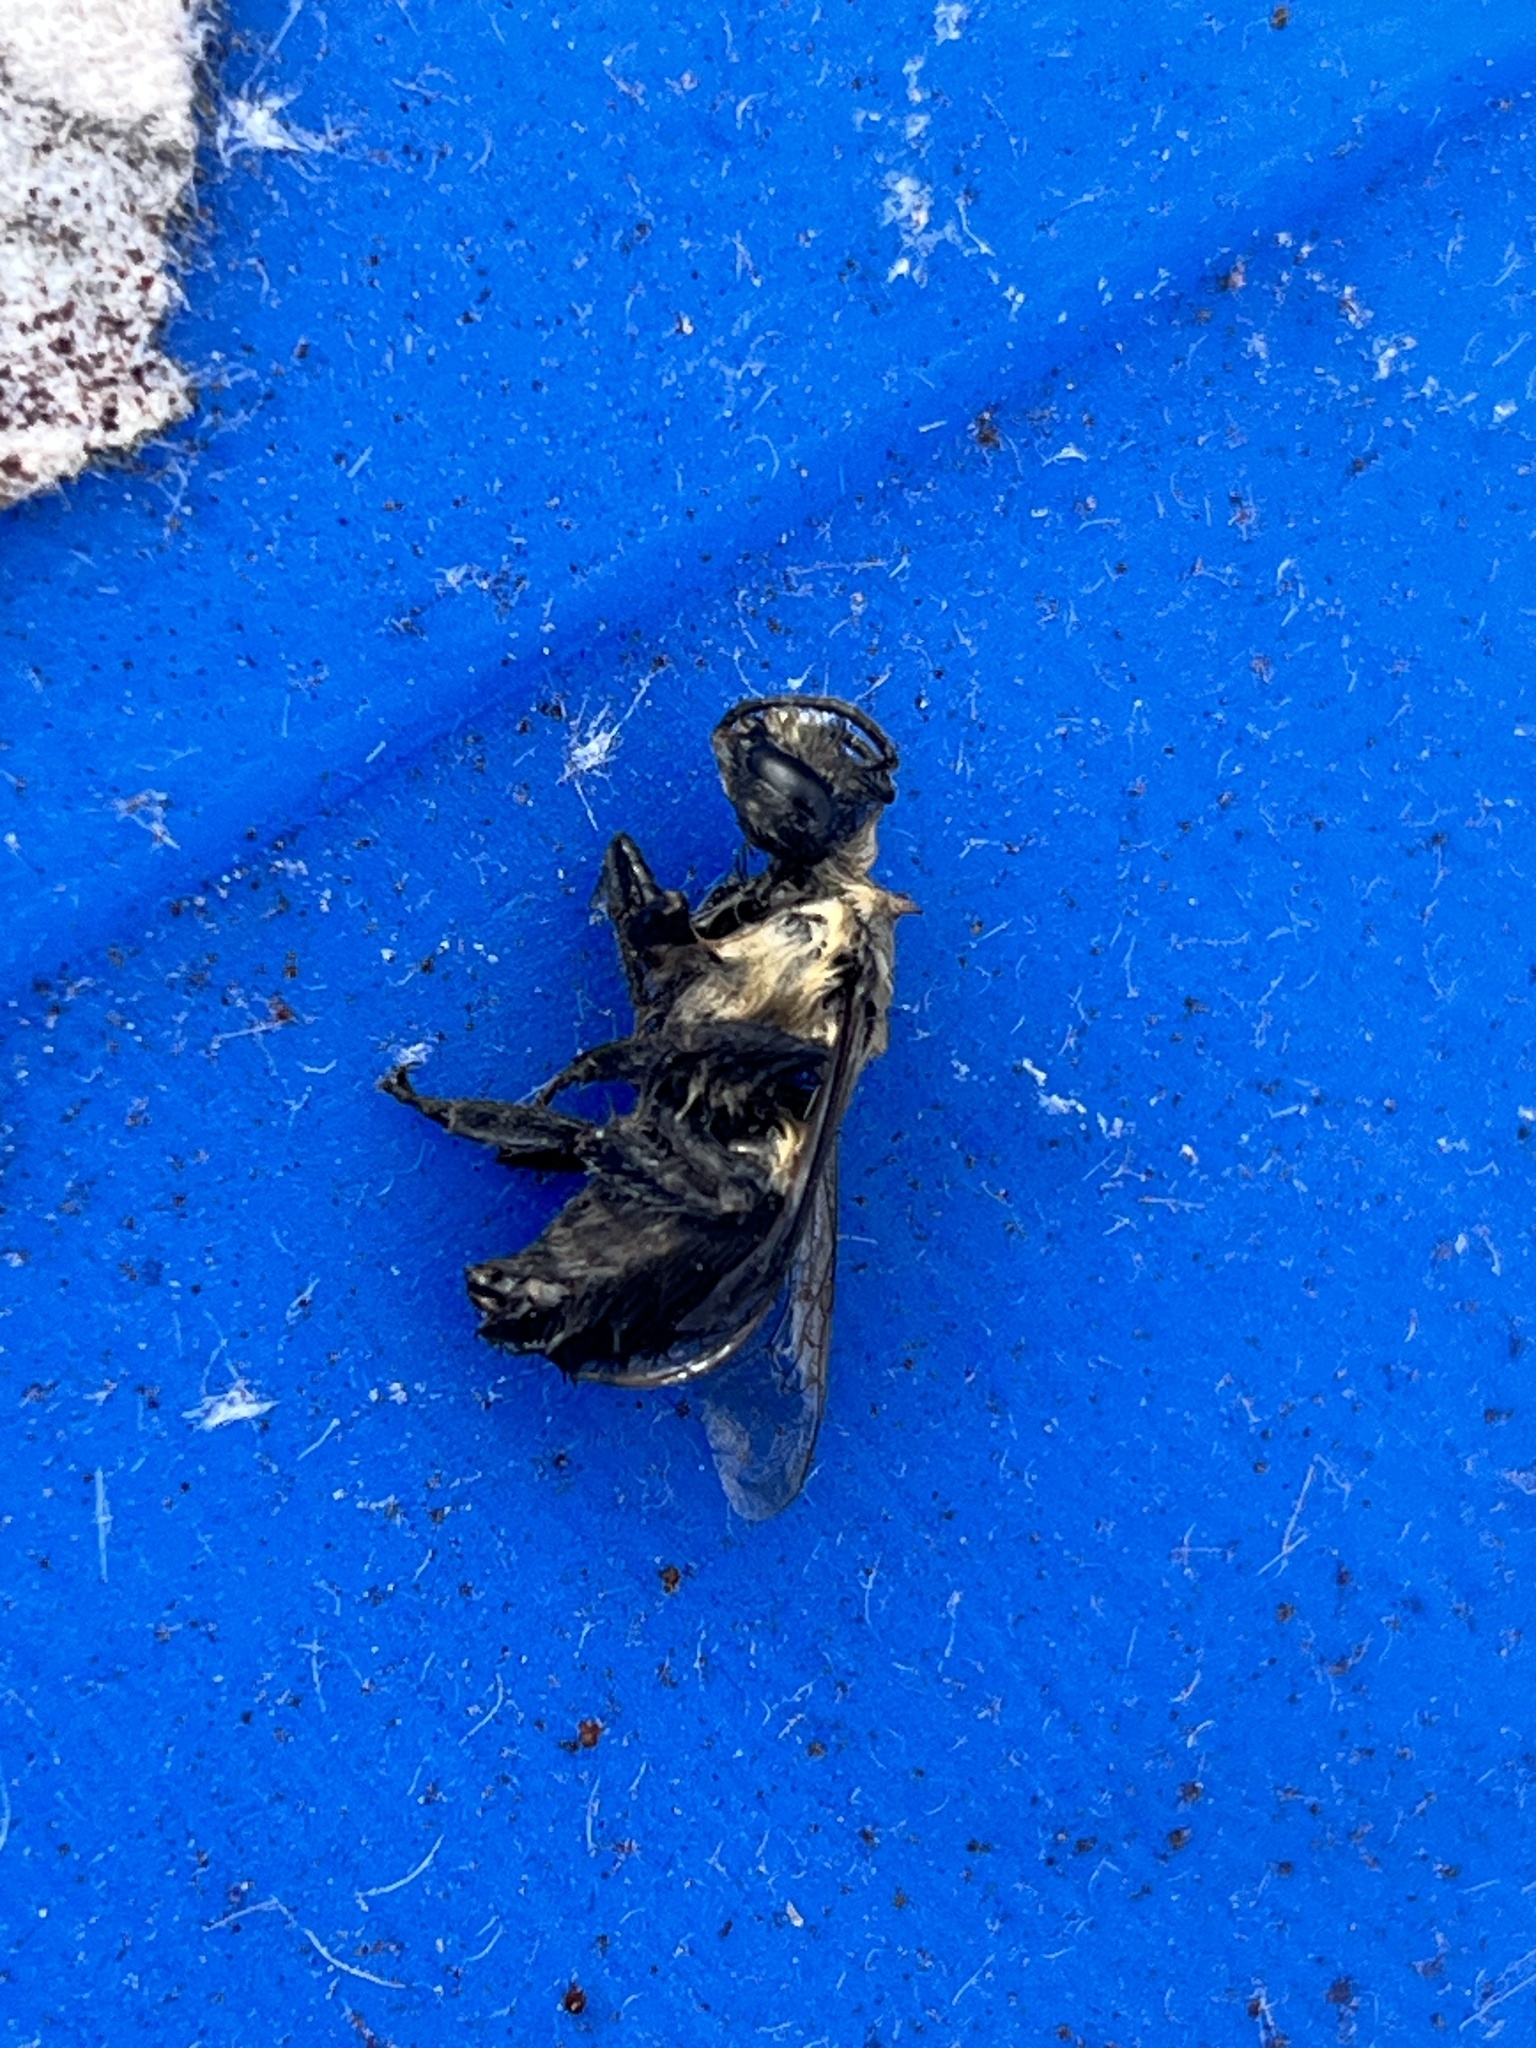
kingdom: Animalia
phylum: Arthropoda
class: Insecta
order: Hymenoptera
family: Apidae
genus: Bombus
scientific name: Bombus impatiens
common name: Common eastern bumble bee
